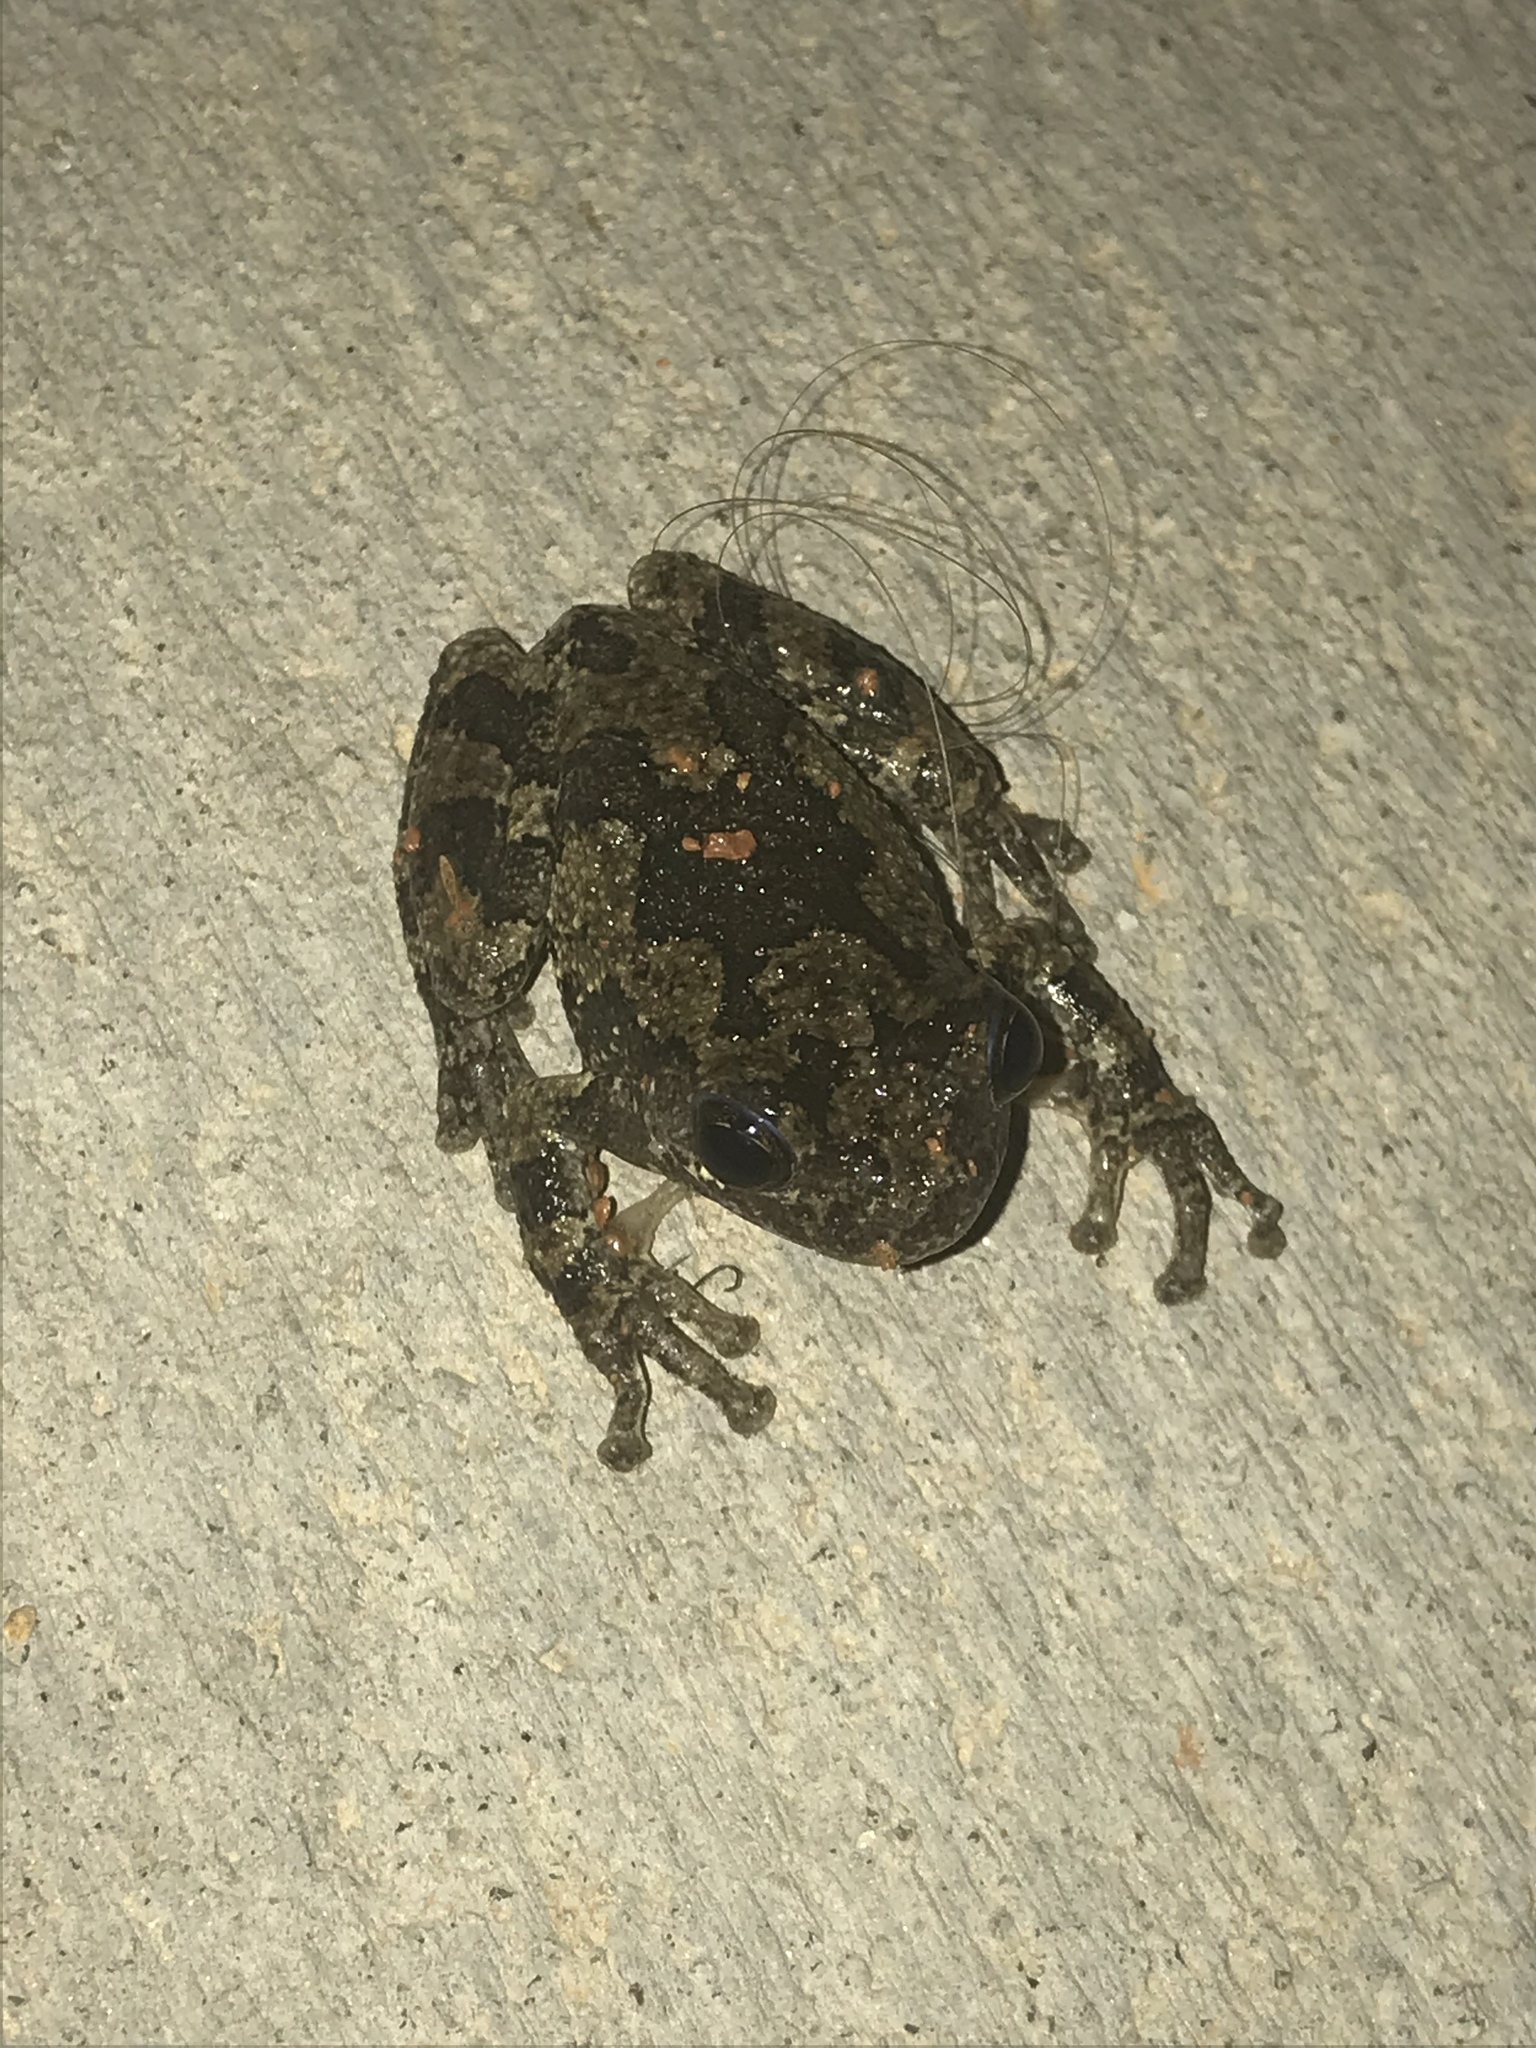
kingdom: Animalia
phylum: Chordata
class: Amphibia
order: Anura
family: Hylidae
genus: Dryophytes
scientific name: Dryophytes chrysoscelis
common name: Cope's gray treefrog
